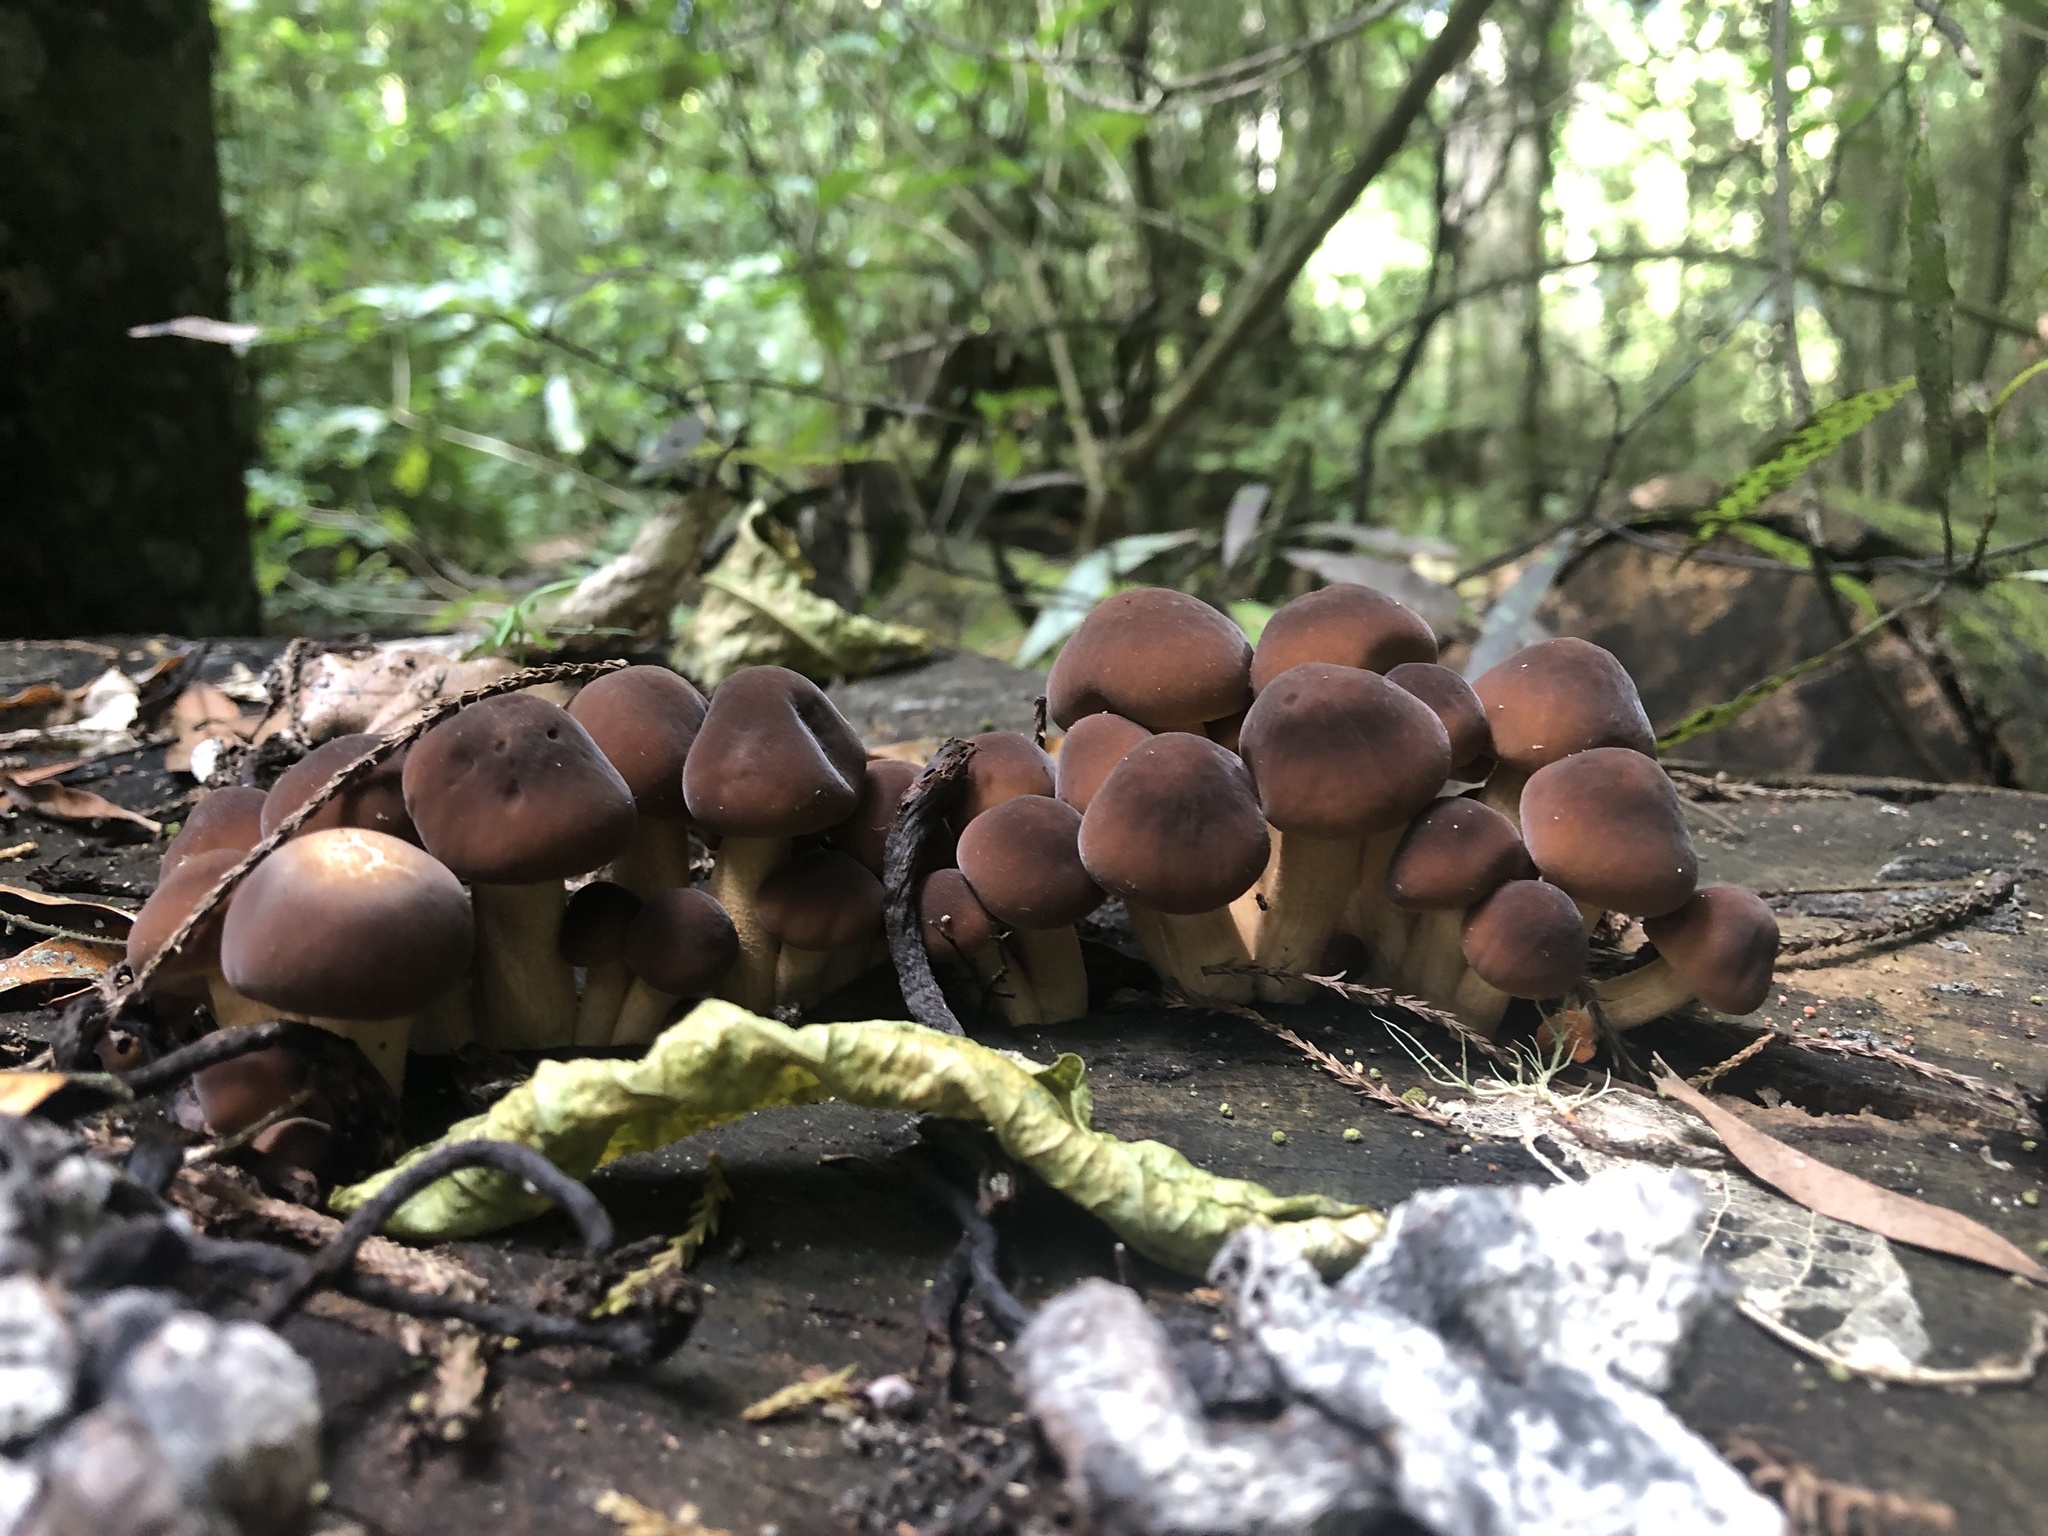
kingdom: Fungi
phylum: Basidiomycota
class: Agaricomycetes
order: Agaricales
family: Tubariaceae
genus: Cyclocybe
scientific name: Cyclocybe parasitica
